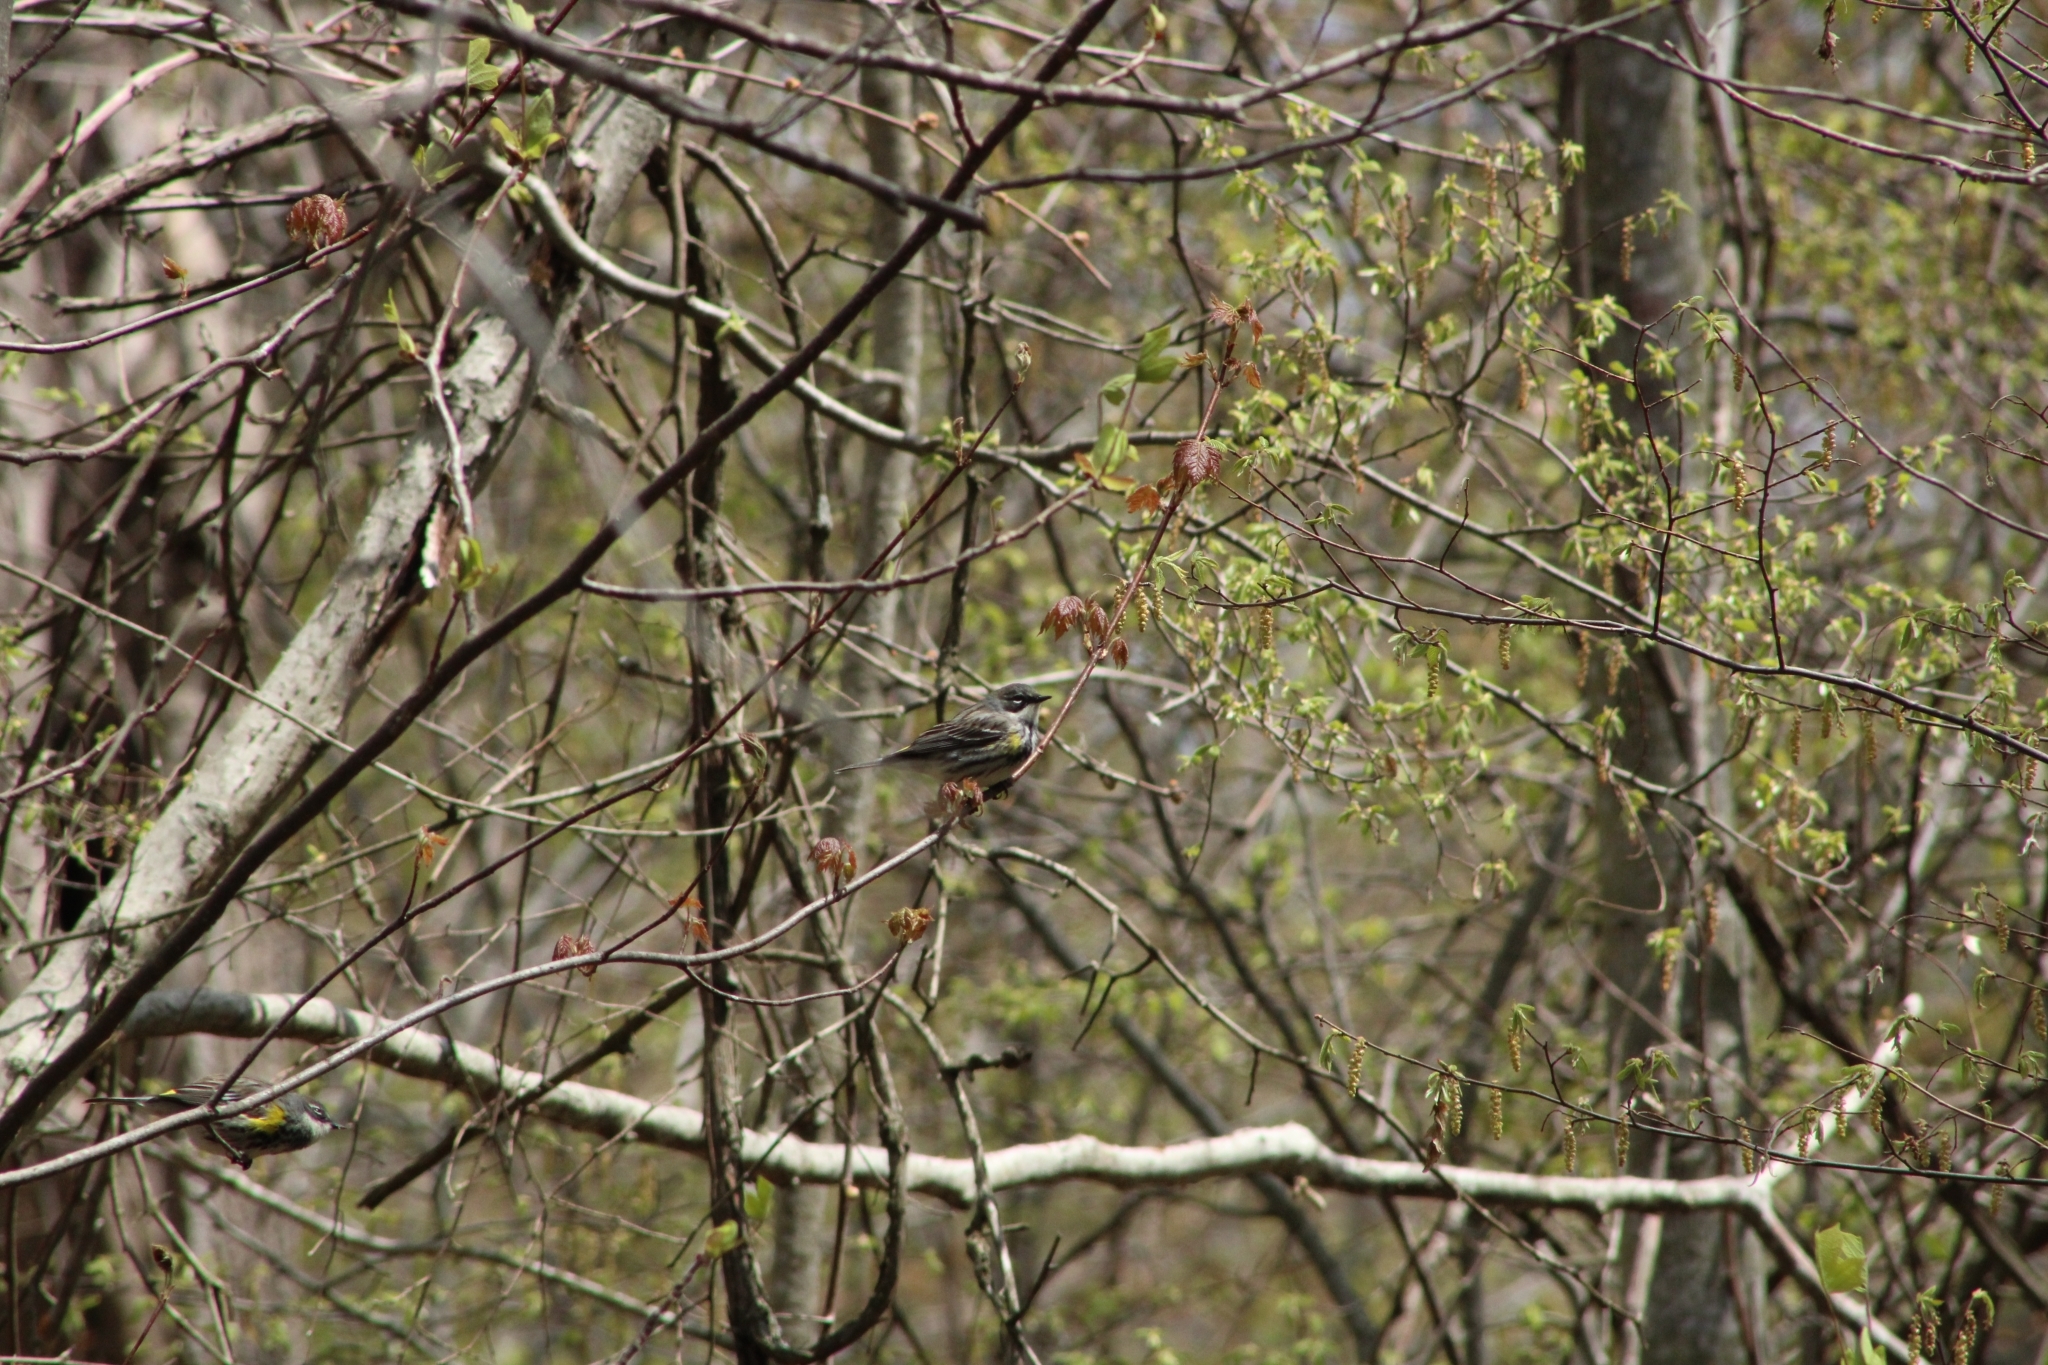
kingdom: Animalia
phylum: Chordata
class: Aves
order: Passeriformes
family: Parulidae
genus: Setophaga
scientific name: Setophaga coronata
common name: Myrtle warbler
